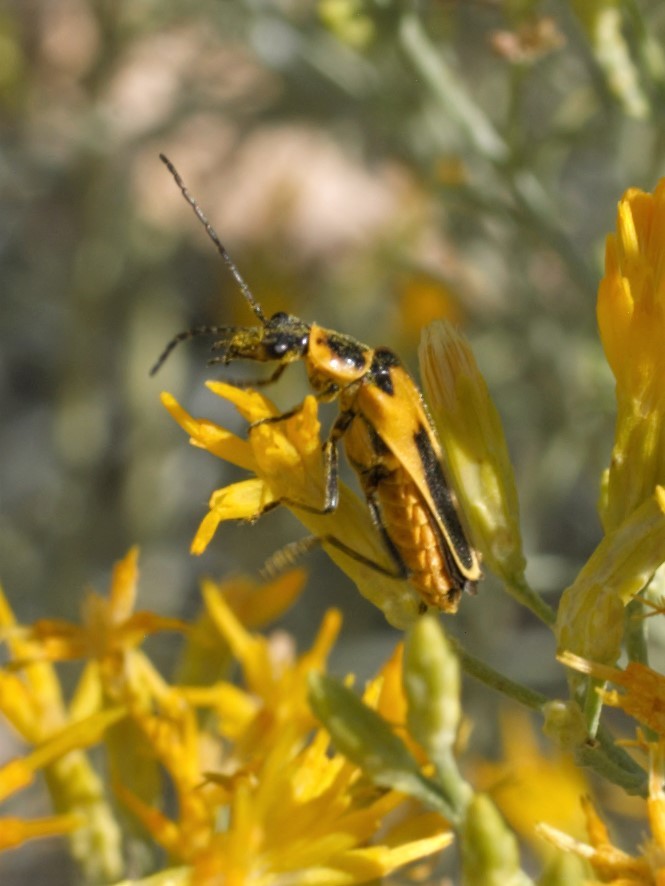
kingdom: Animalia
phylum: Arthropoda
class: Insecta
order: Coleoptera
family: Cantharidae
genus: Chauliognathus
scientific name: Chauliognathus lewisi
